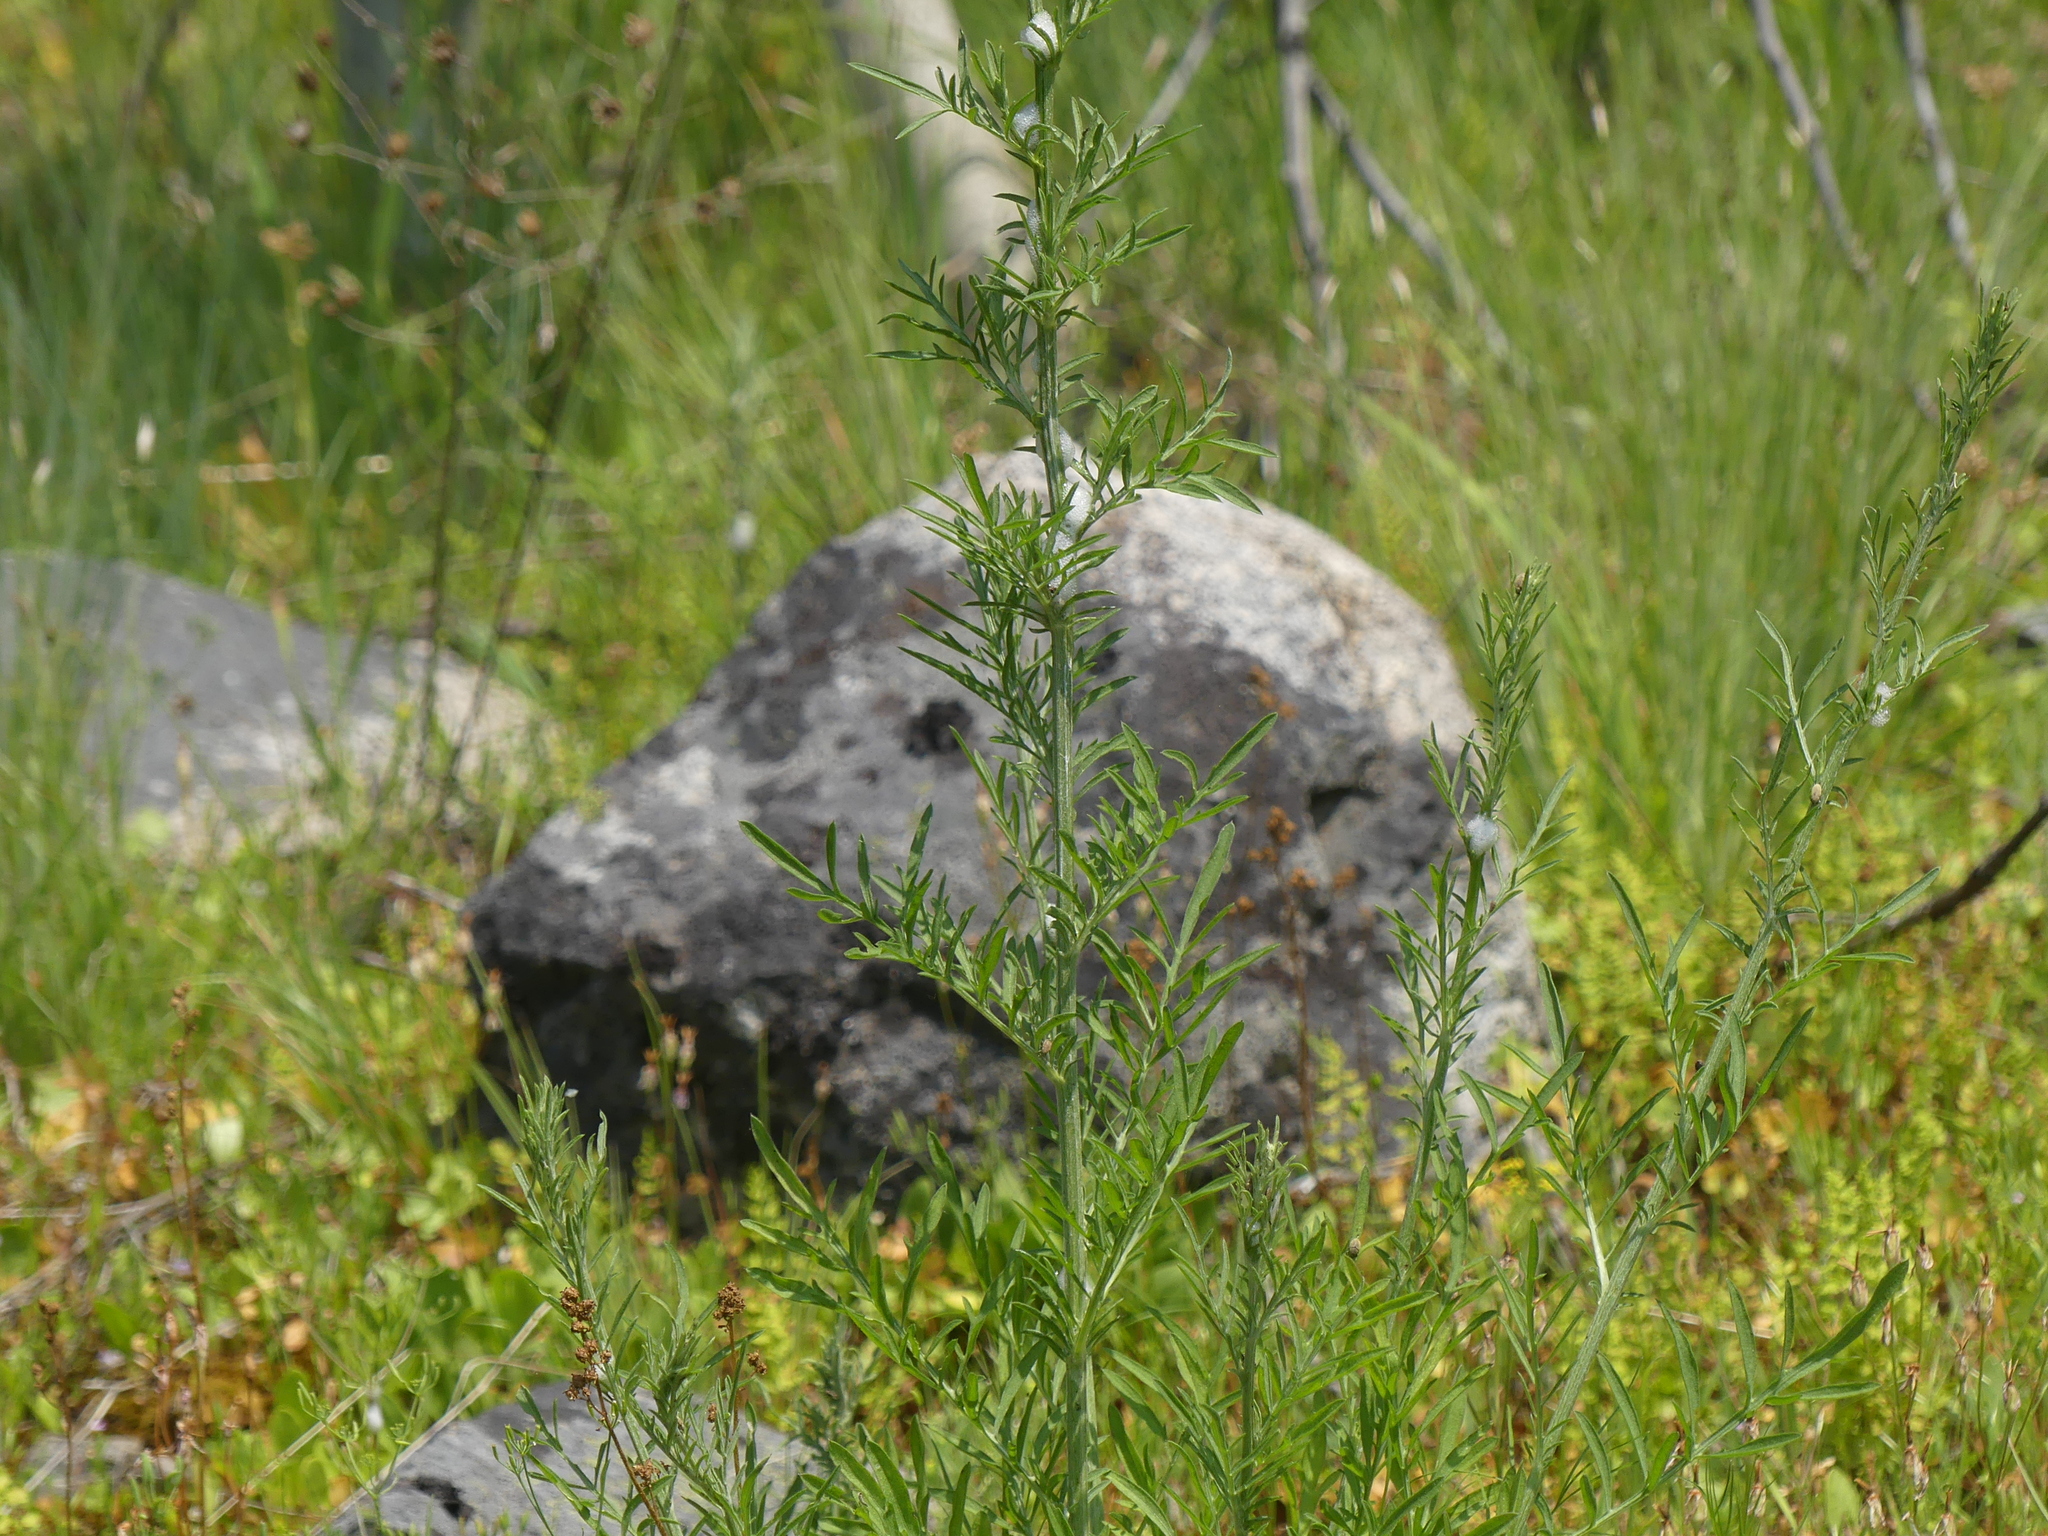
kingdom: Plantae
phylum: Tracheophyta
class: Magnoliopsida
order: Brassicales
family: Brassicaceae
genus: Sisymbrium
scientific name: Sisymbrium altissimum
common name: Tall rocket
